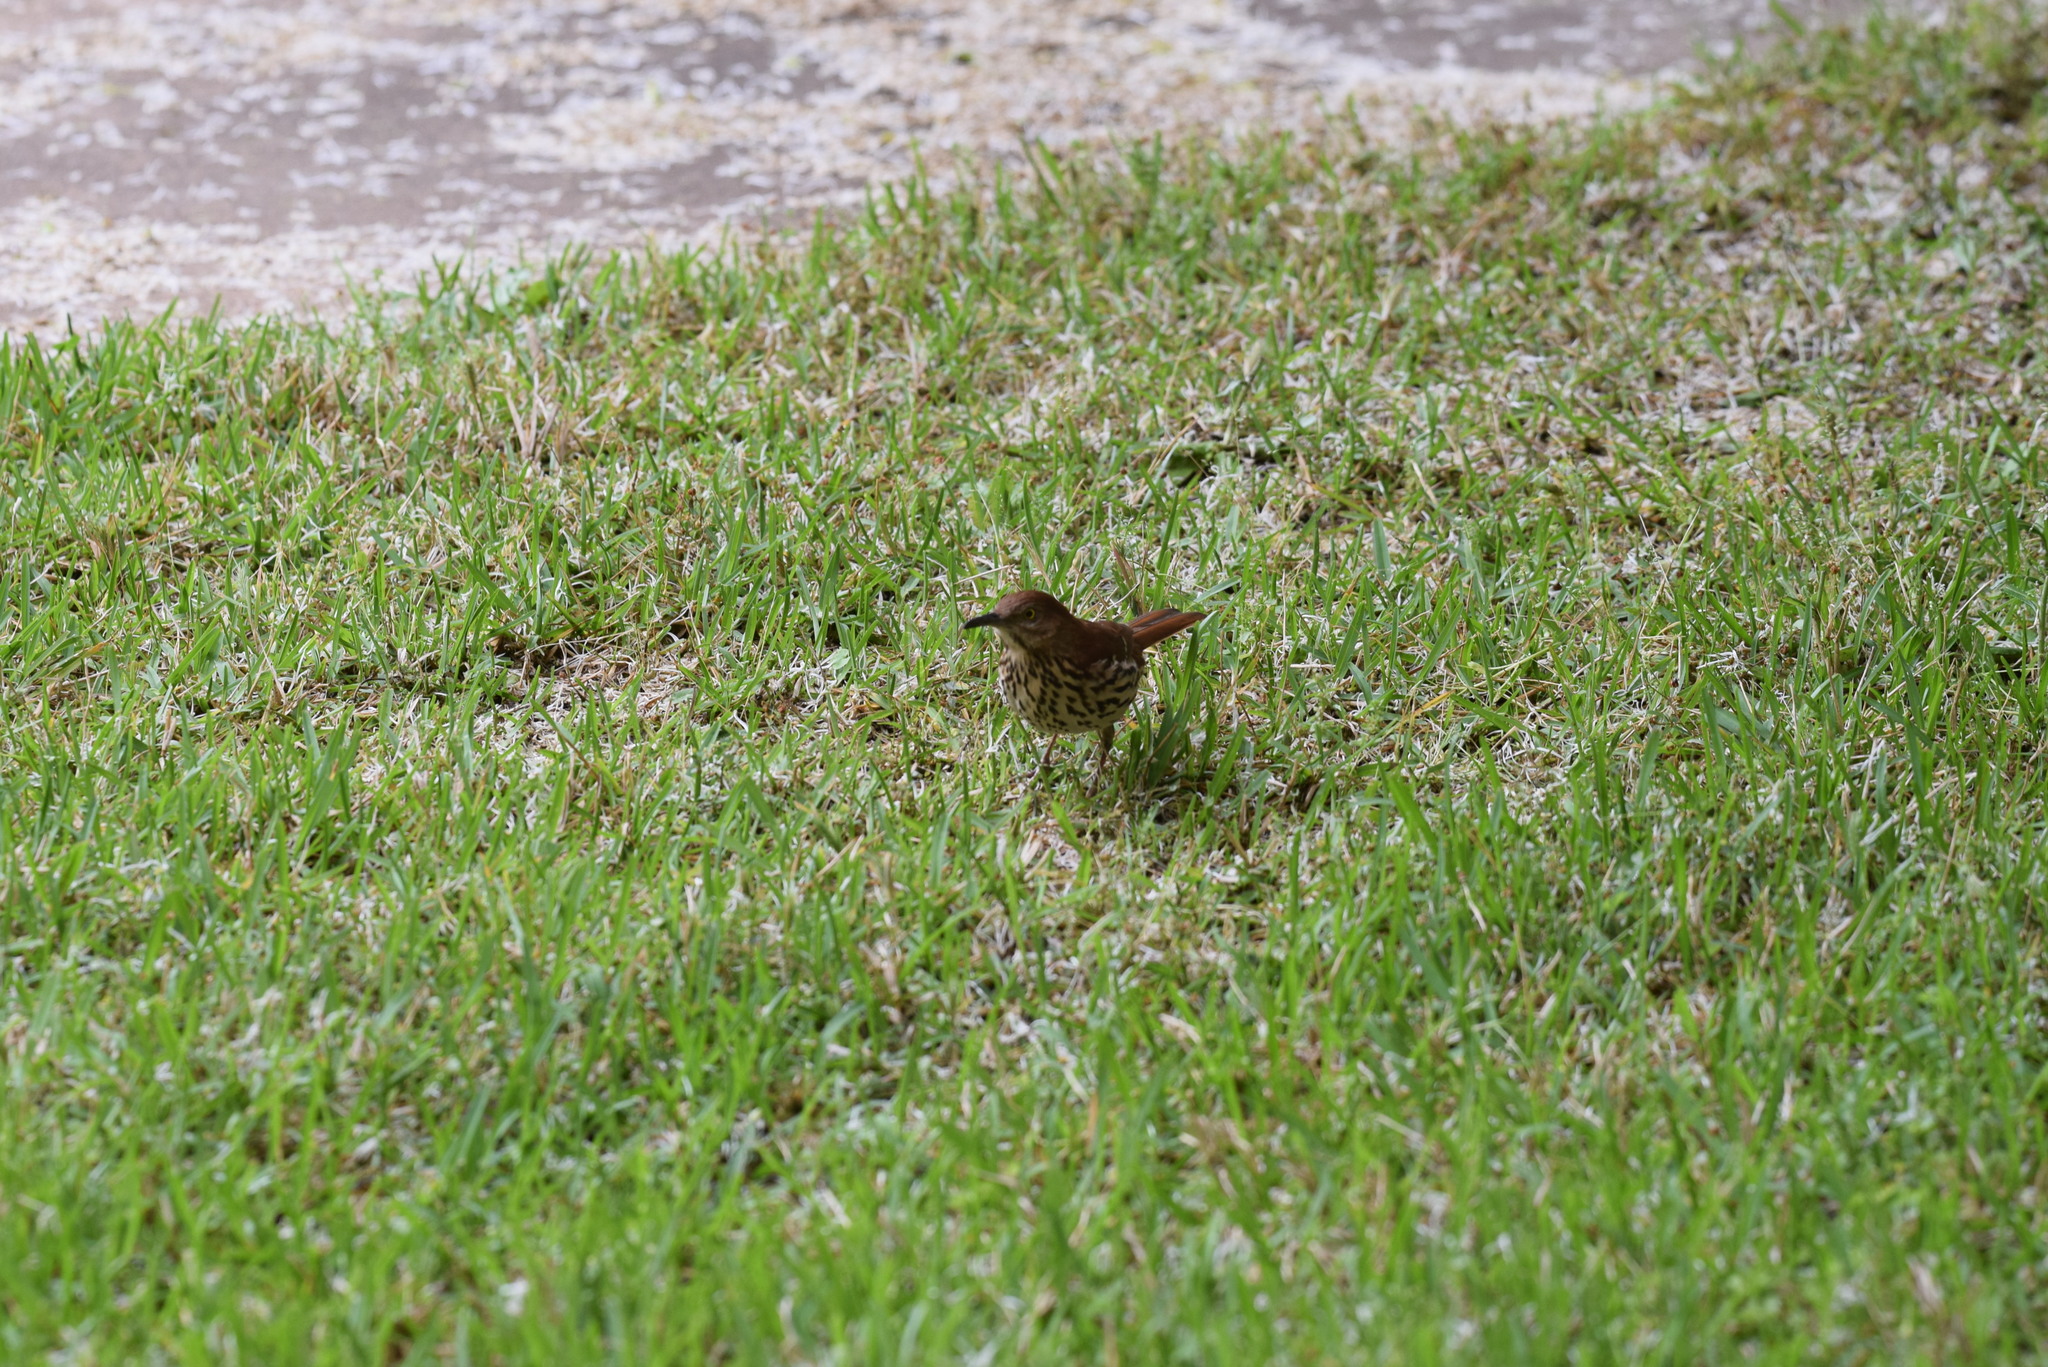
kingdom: Animalia
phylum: Chordata
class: Aves
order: Passeriformes
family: Mimidae
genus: Toxostoma
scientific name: Toxostoma rufum
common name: Brown thrasher
